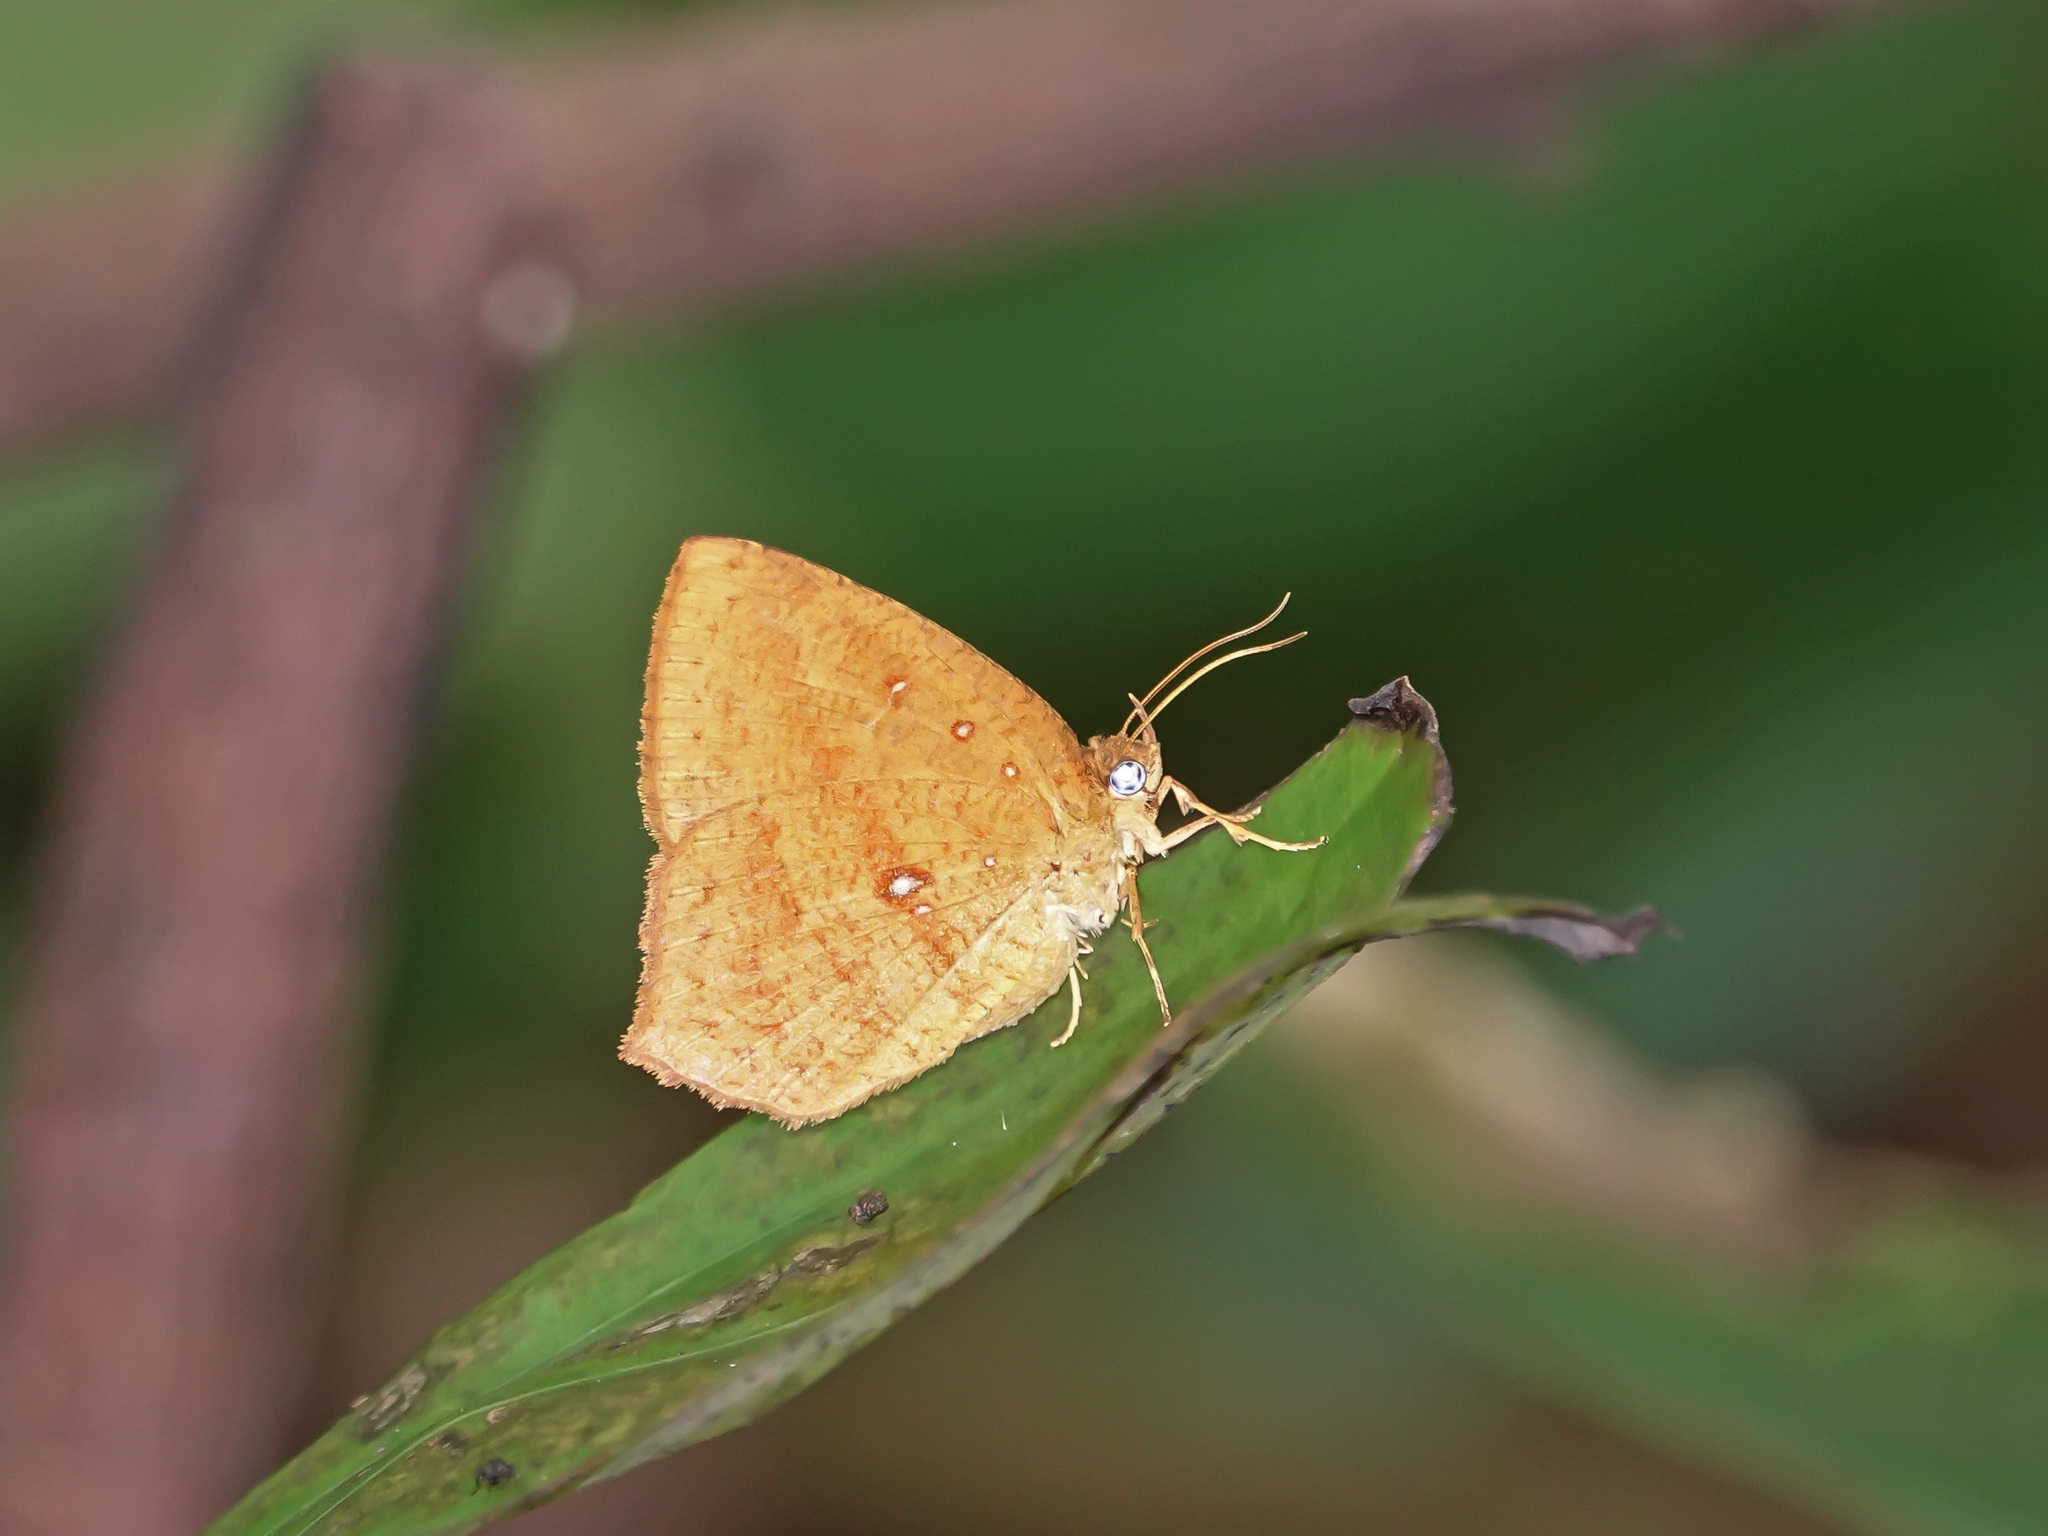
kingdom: Animalia
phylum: Arthropoda
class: Insecta
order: Lepidoptera
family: Callidulidae
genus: Tetragonus
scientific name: Tetragonus catamitus
